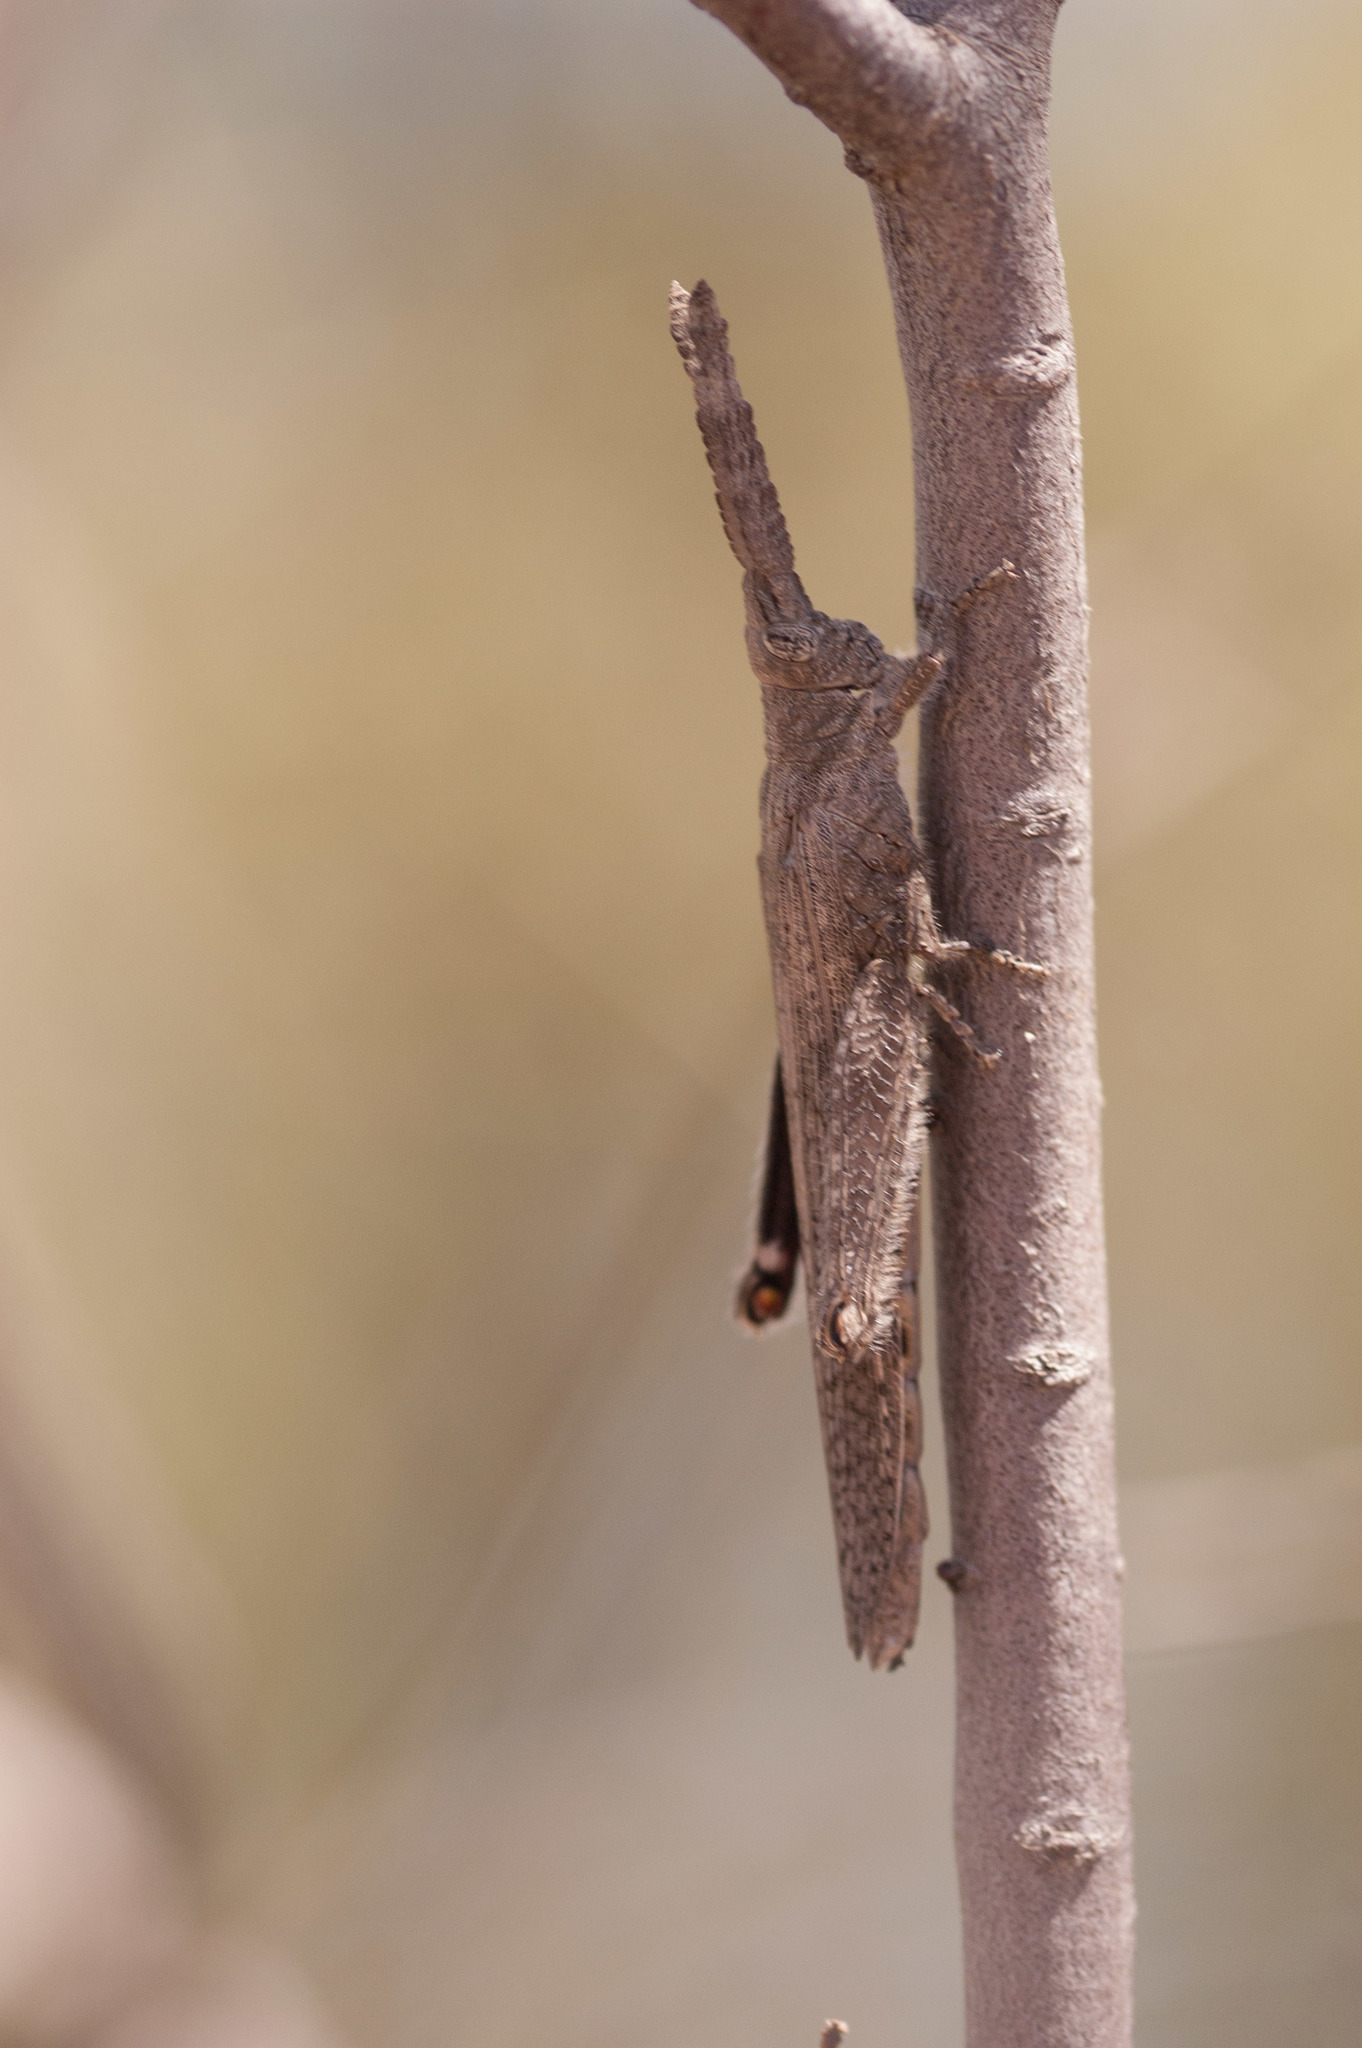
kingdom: Animalia
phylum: Arthropoda
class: Insecta
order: Orthoptera
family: Acrididae
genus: Retuspia
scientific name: Retuspia validicornis
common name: Common retuspia
